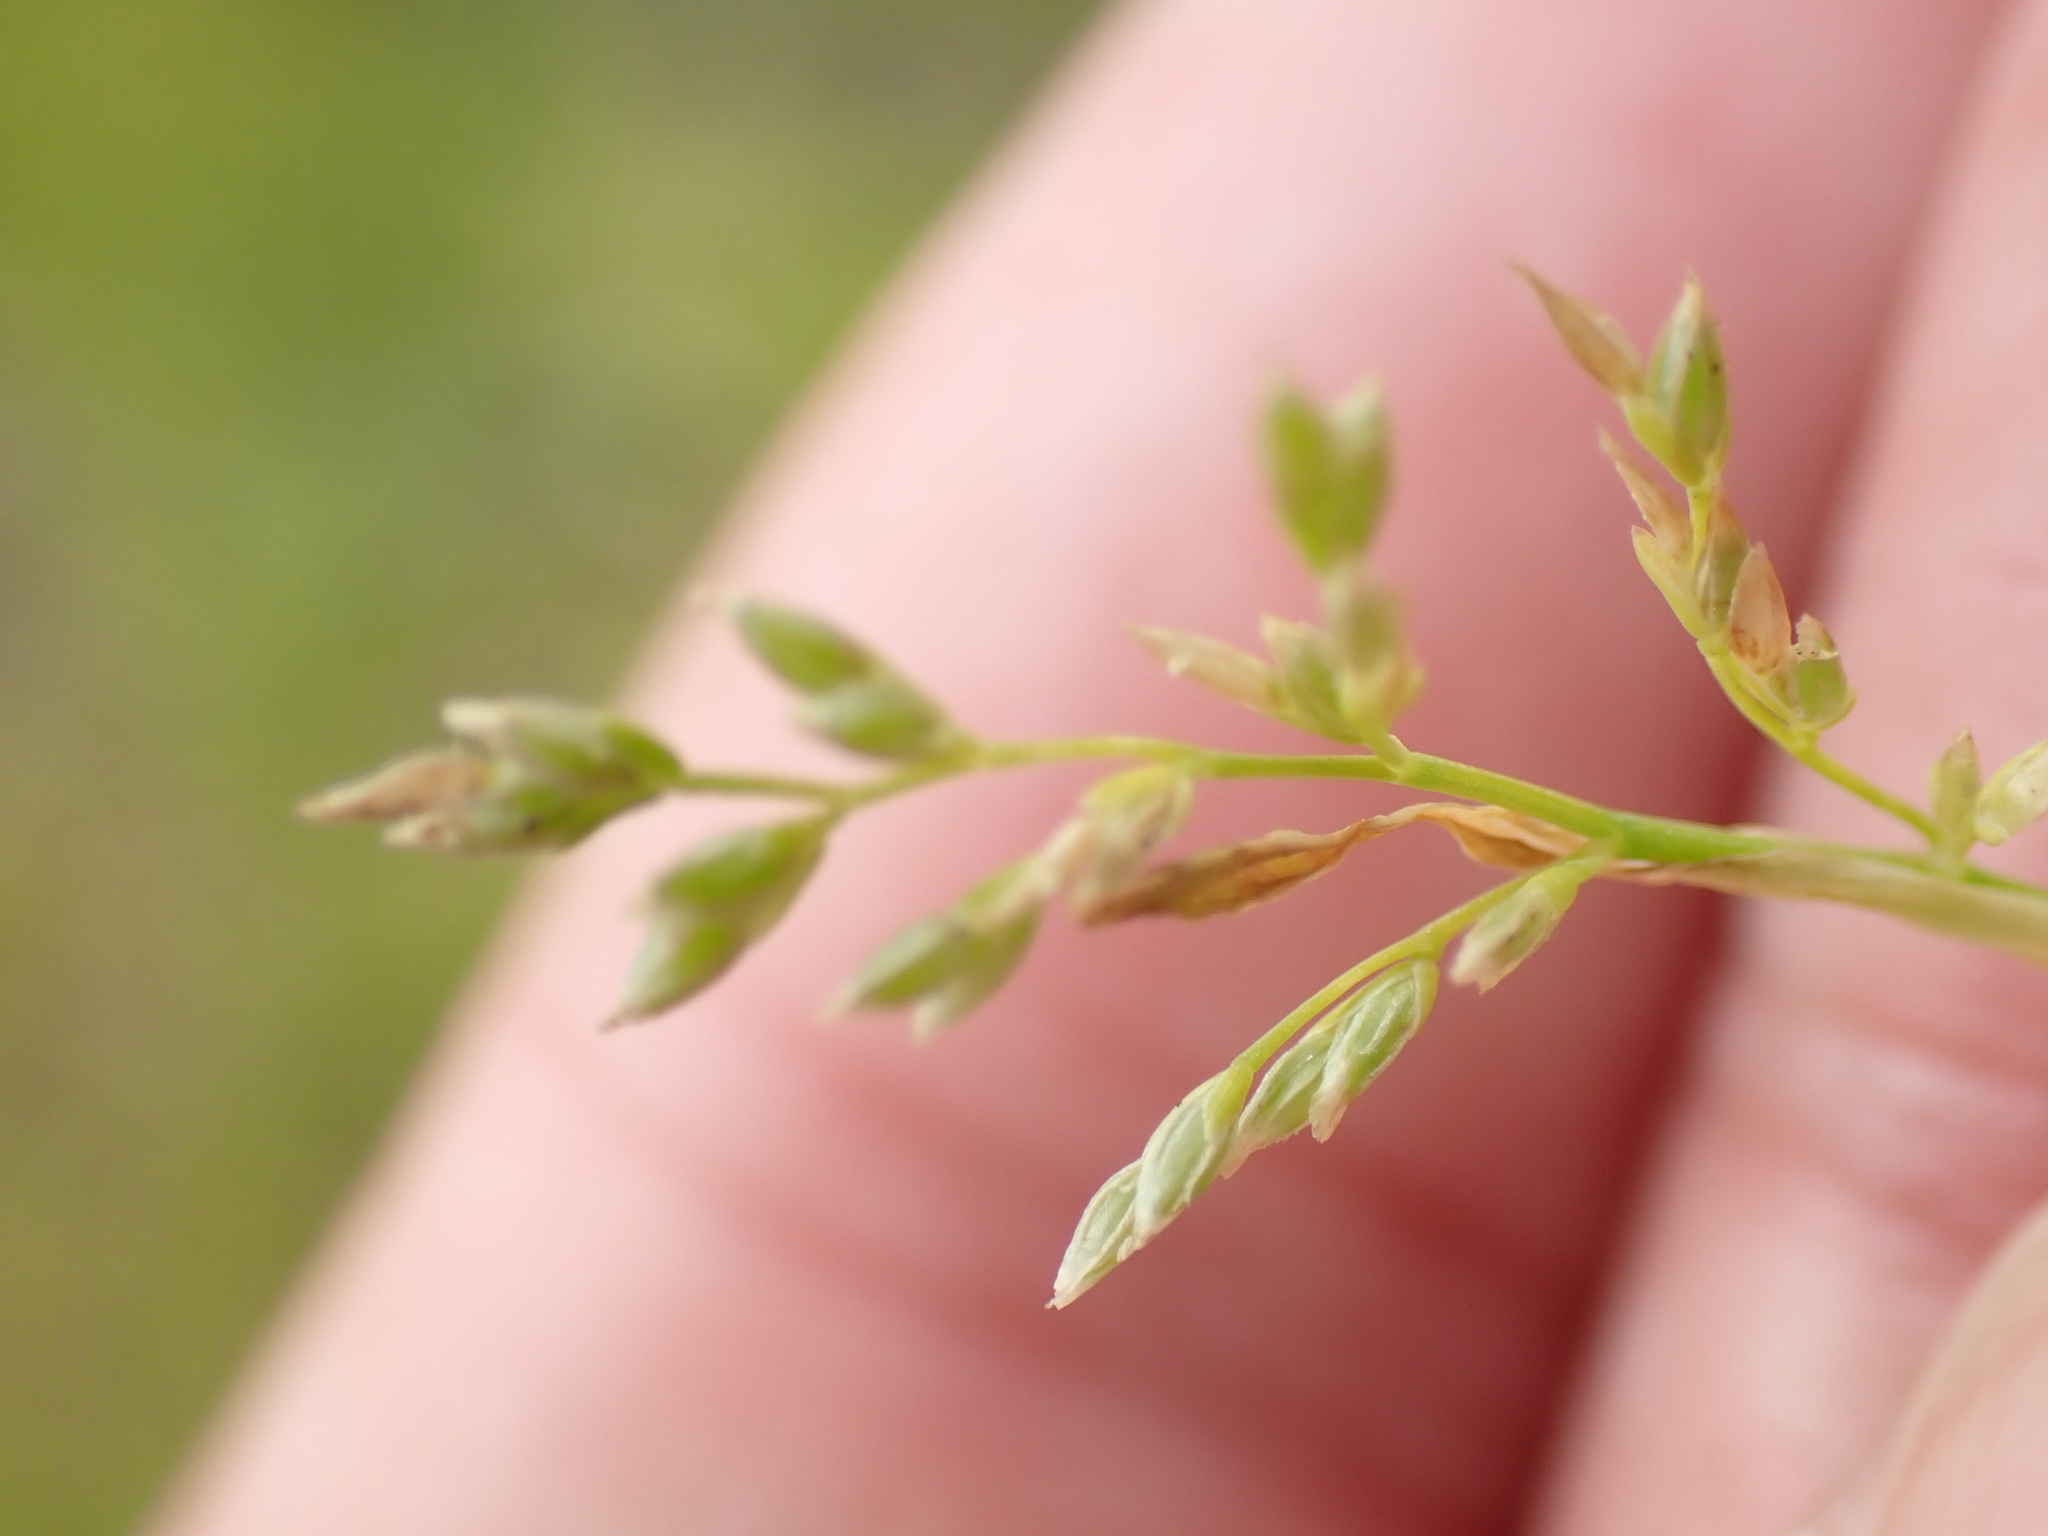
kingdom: Plantae
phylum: Tracheophyta
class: Liliopsida
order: Poales
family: Poaceae
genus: Poa
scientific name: Poa annua
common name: Annual bluegrass
